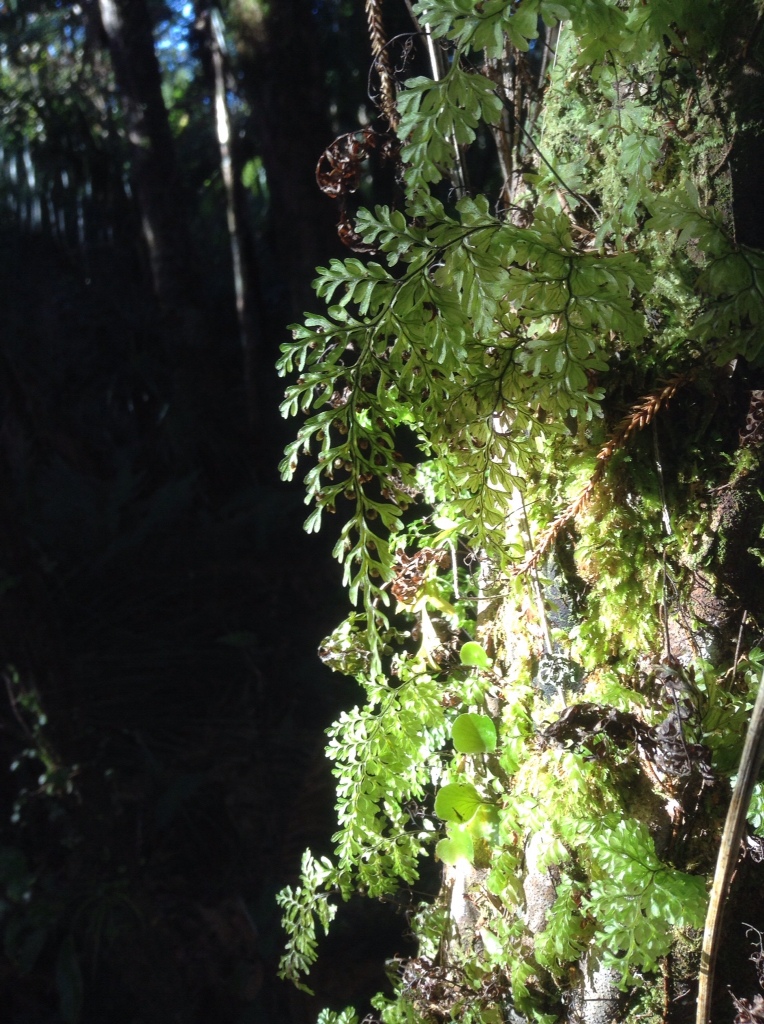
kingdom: Plantae
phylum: Tracheophyta
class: Polypodiopsida
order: Hymenophyllales
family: Hymenophyllaceae
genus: Hymenophyllum
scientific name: Hymenophyllum sanguinolentum
